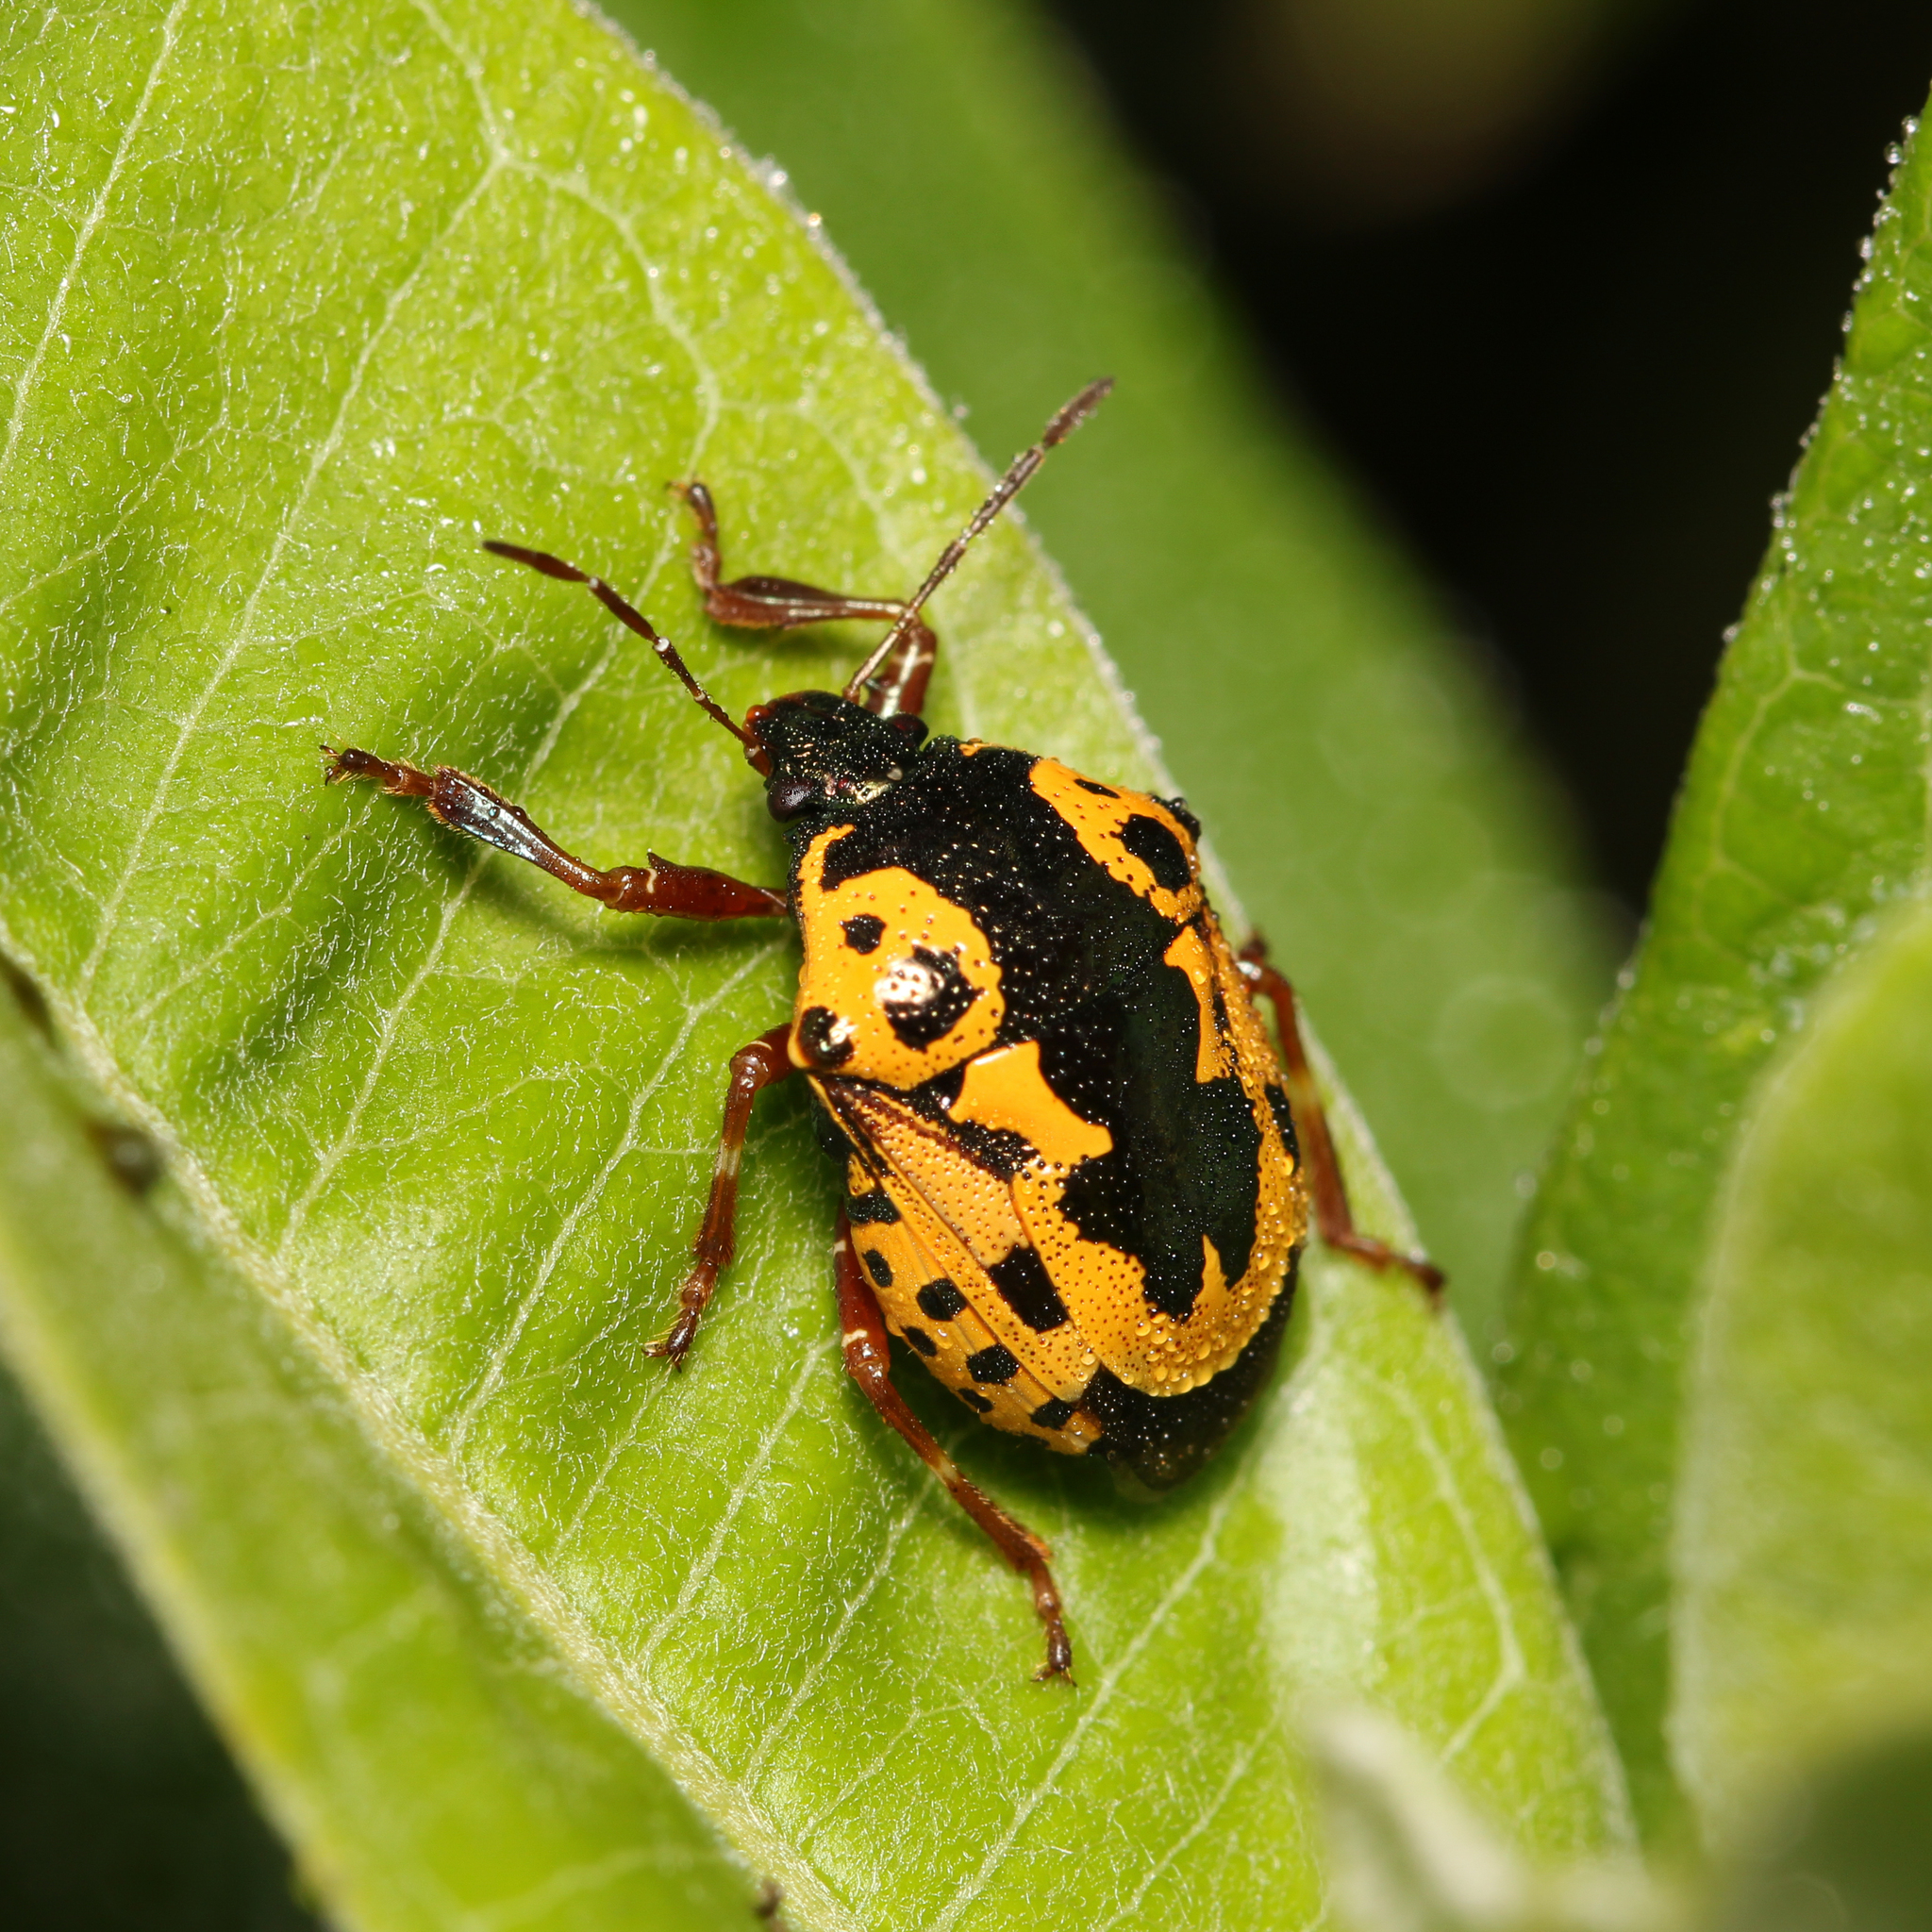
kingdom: Animalia
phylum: Arthropoda
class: Insecta
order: Hemiptera
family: Pentatomidae
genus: Stiretrus
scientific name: Stiretrus anchorago
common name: Anchor stink bug
